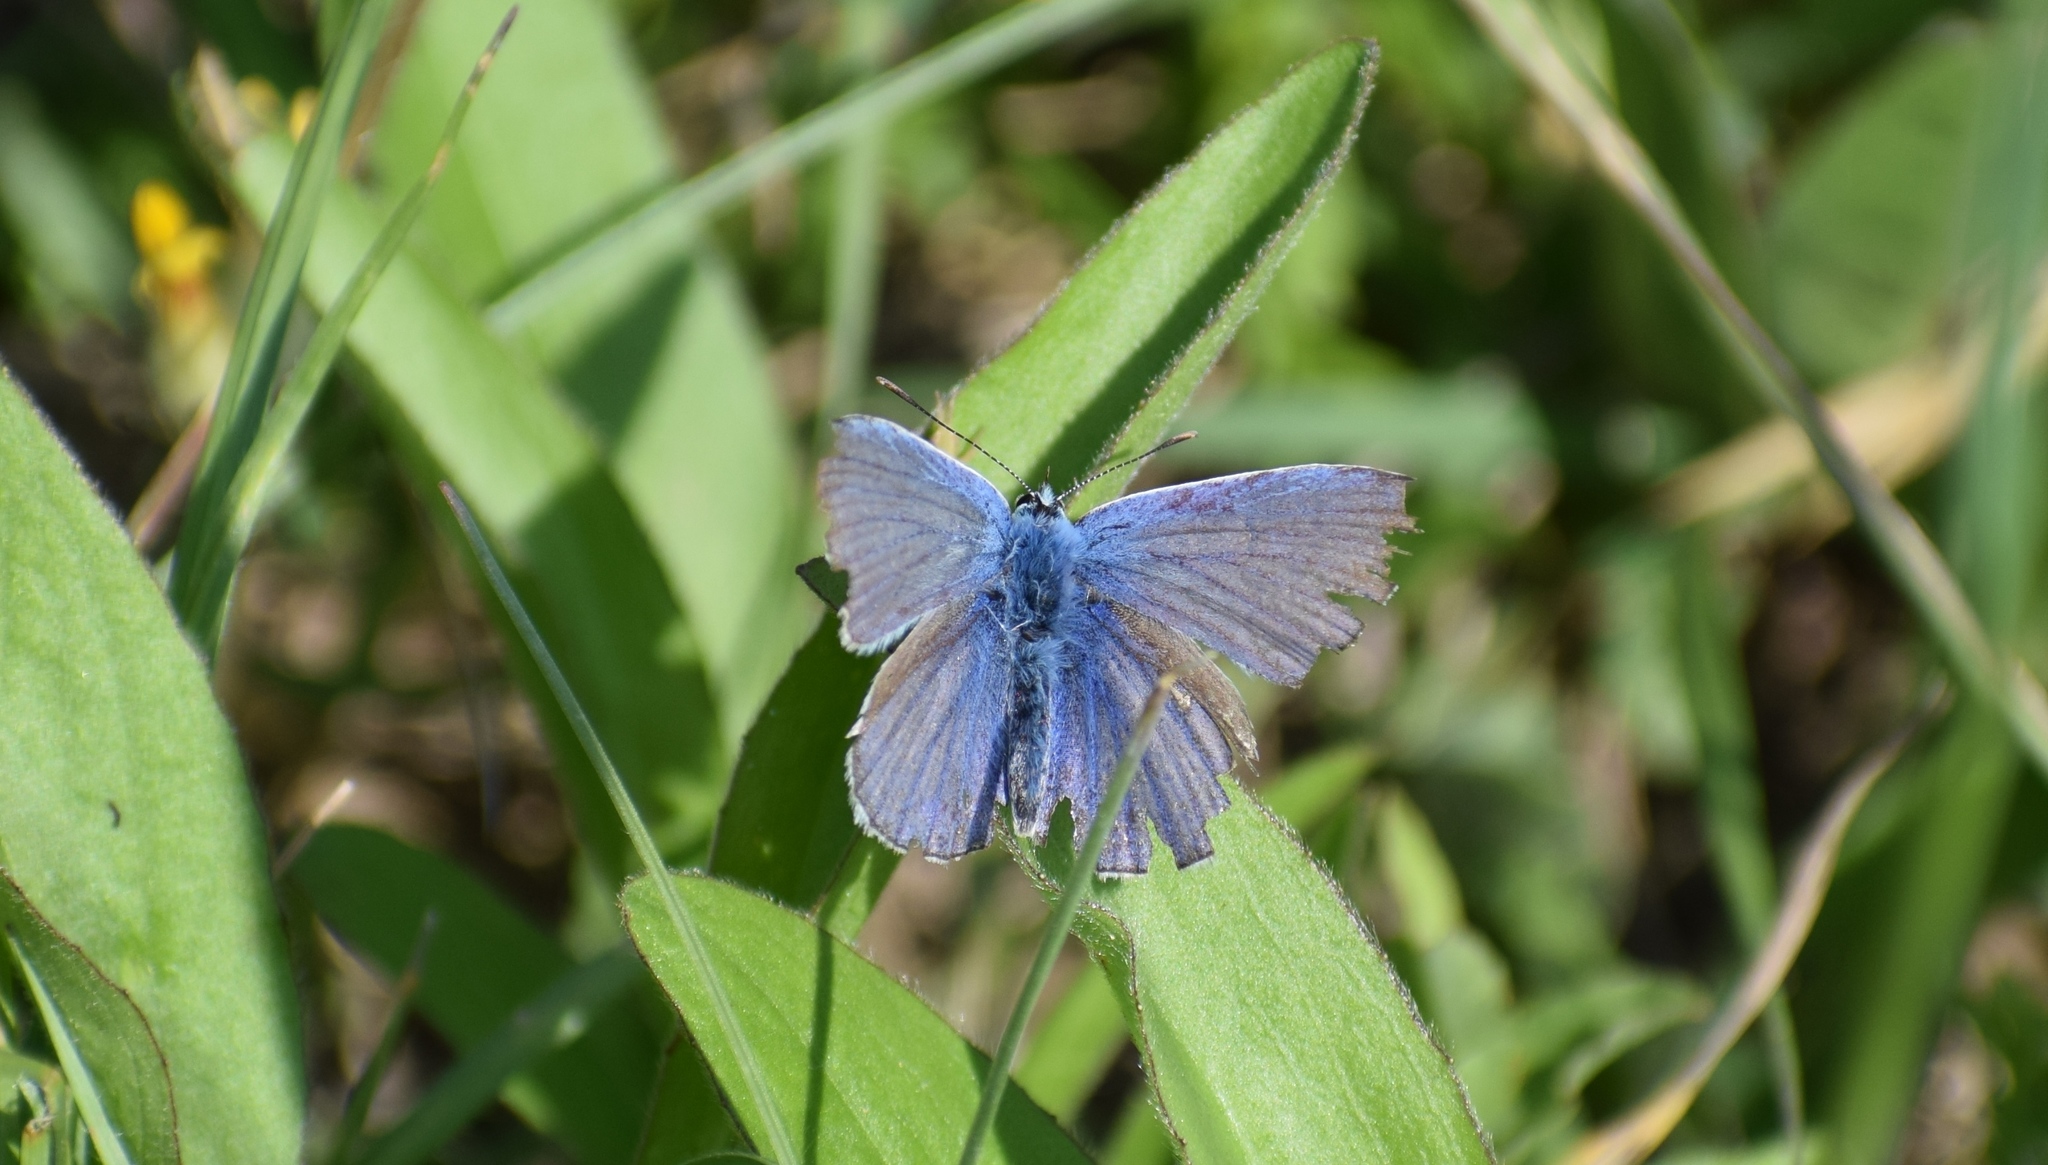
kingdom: Animalia
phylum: Arthropoda
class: Insecta
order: Lepidoptera
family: Lycaenidae
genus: Polyommatus
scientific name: Polyommatus icarus
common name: Common blue
